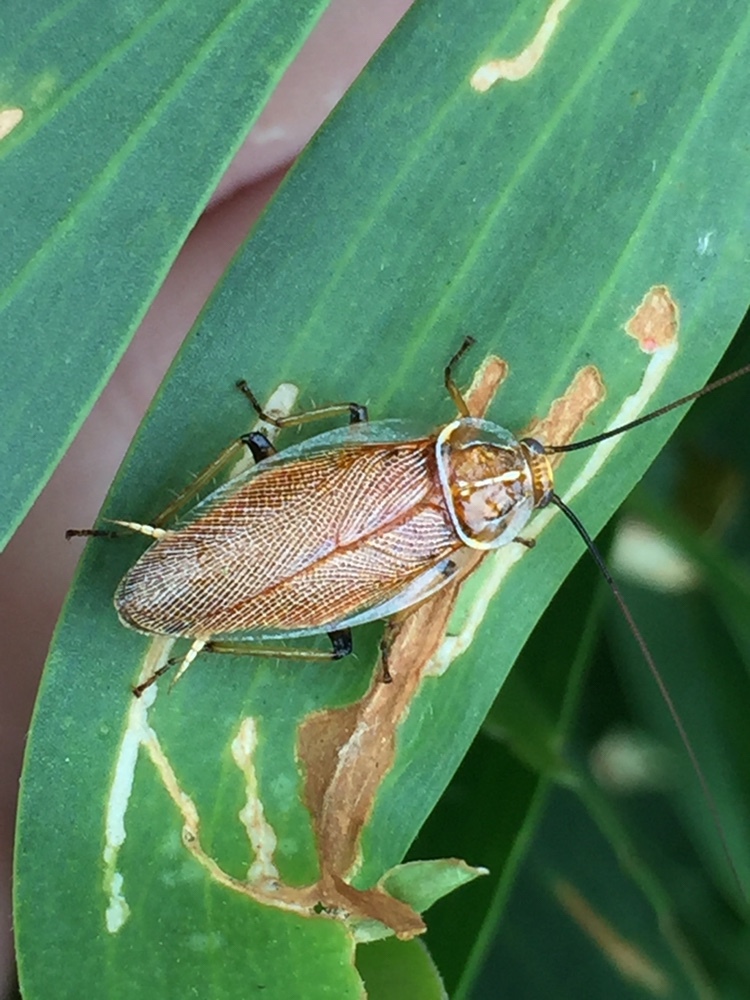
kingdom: Animalia
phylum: Arthropoda
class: Insecta
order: Blattodea
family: Ectobiidae
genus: Balta
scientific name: Balta bicolor
